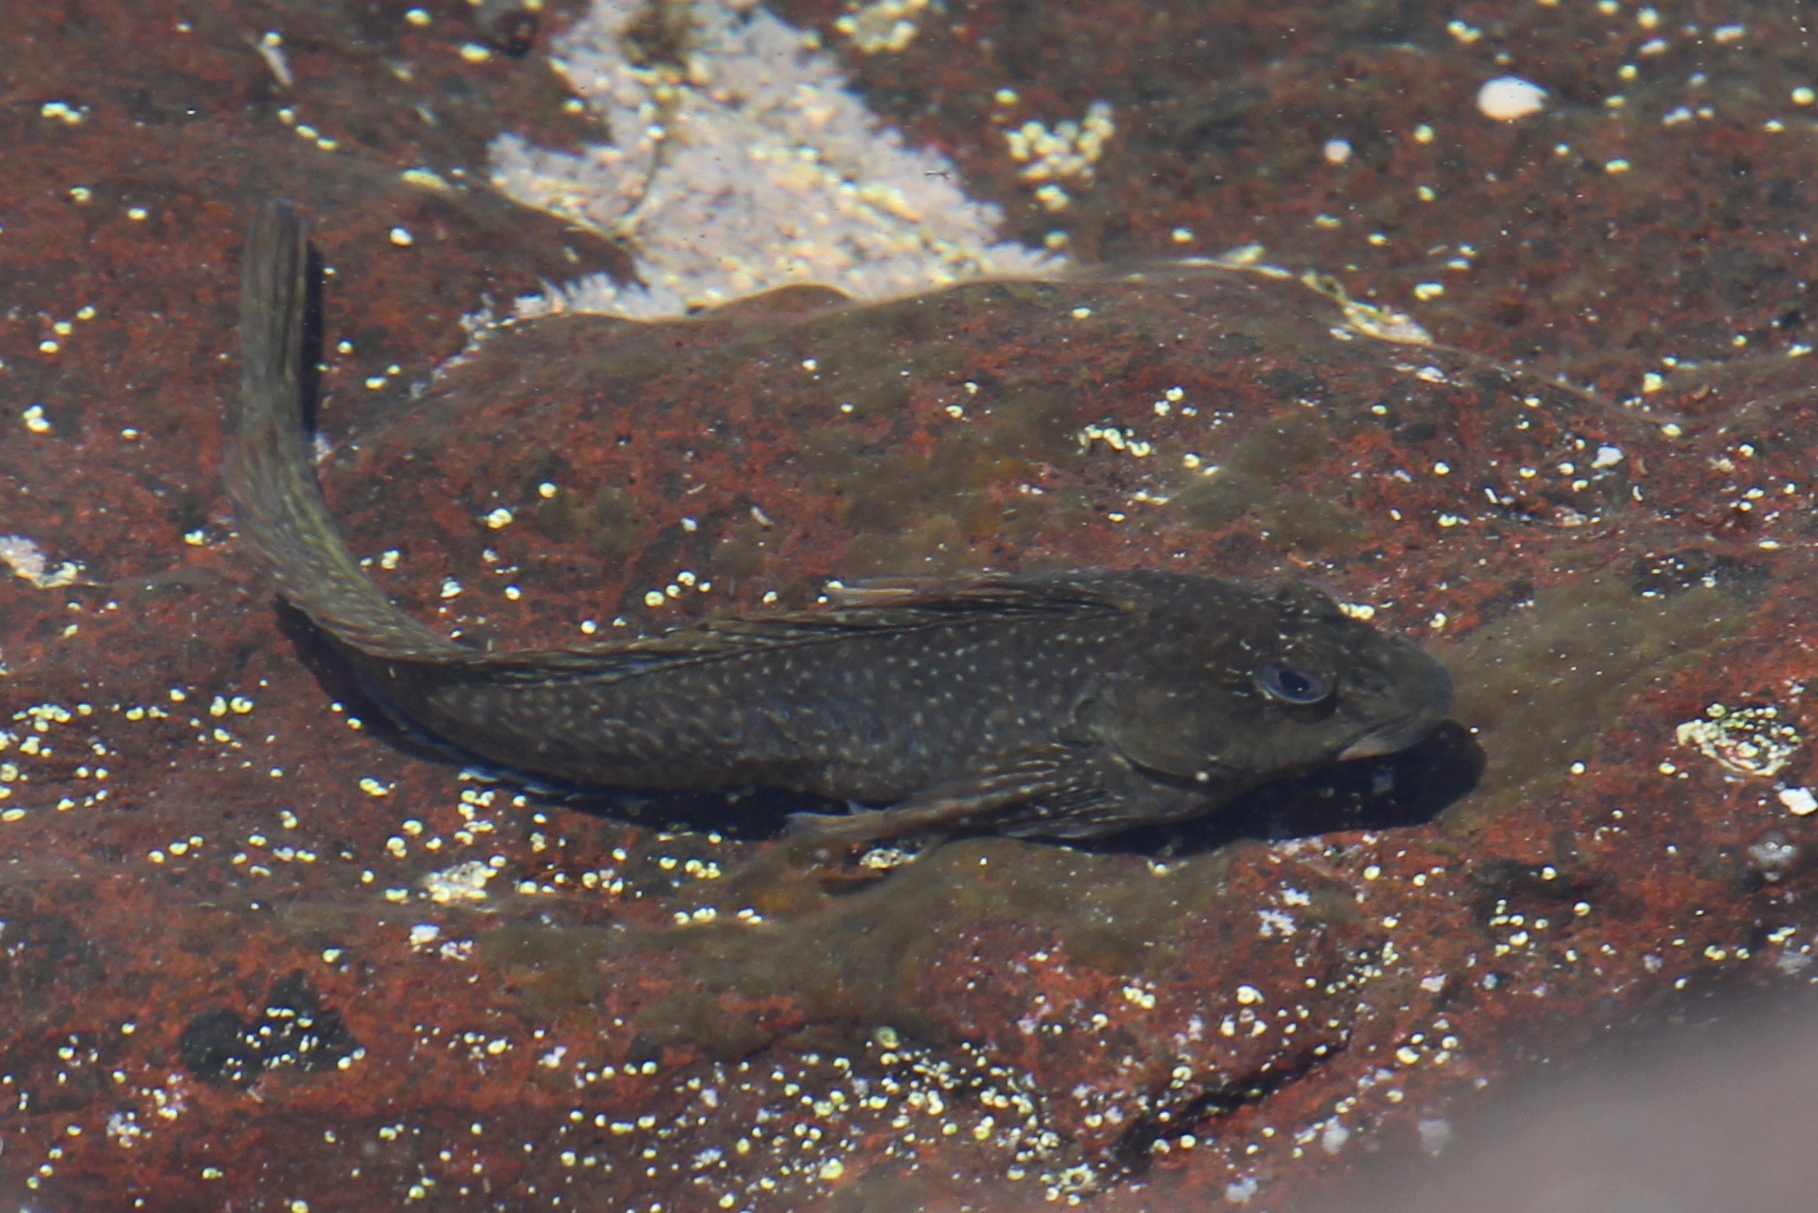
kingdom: Animalia
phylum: Chordata
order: Perciformes
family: Blenniidae
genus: Parablennius
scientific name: Parablennius parvicornis
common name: Rock-pool blenny
